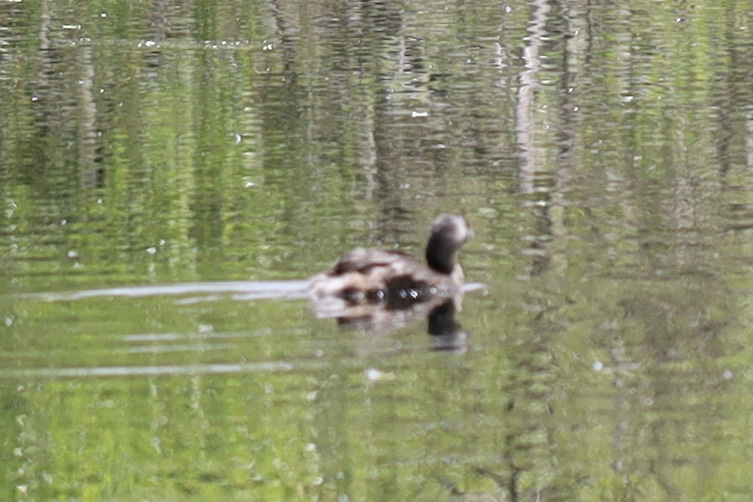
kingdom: Animalia
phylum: Chordata
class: Aves
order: Podicipediformes
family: Podicipedidae
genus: Podilymbus
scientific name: Podilymbus podiceps
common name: Pied-billed grebe
